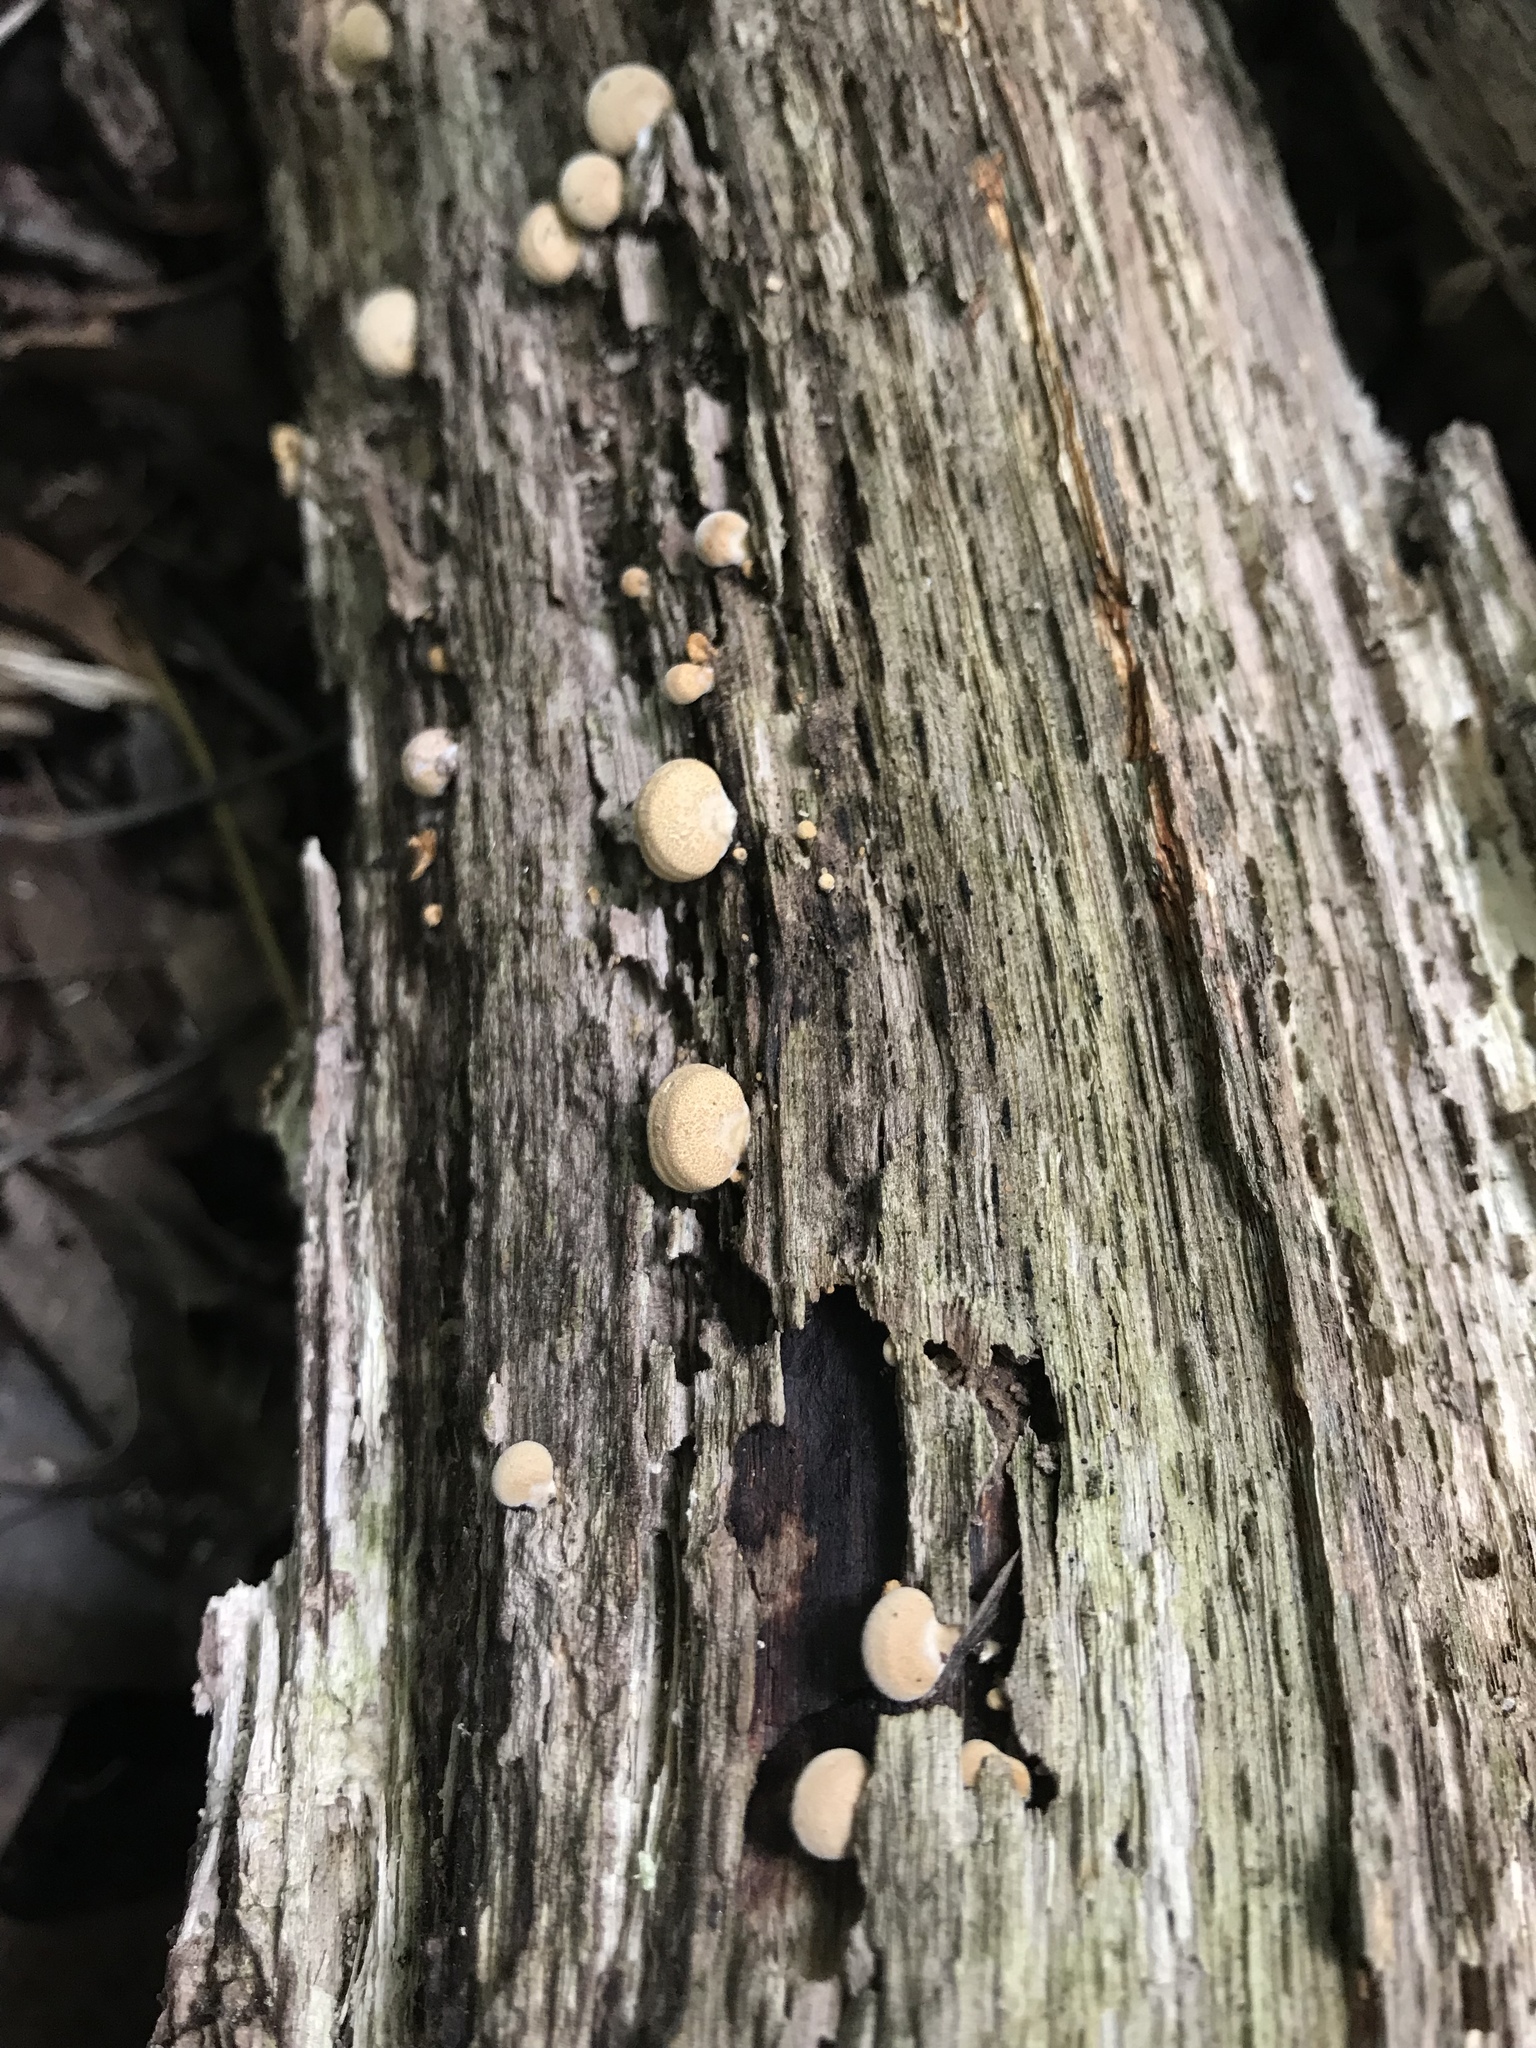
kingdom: Fungi
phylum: Basidiomycota
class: Agaricomycetes
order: Agaricales
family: Mycenaceae
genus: Panellus
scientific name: Panellus stipticus
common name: Bitter oysterling
